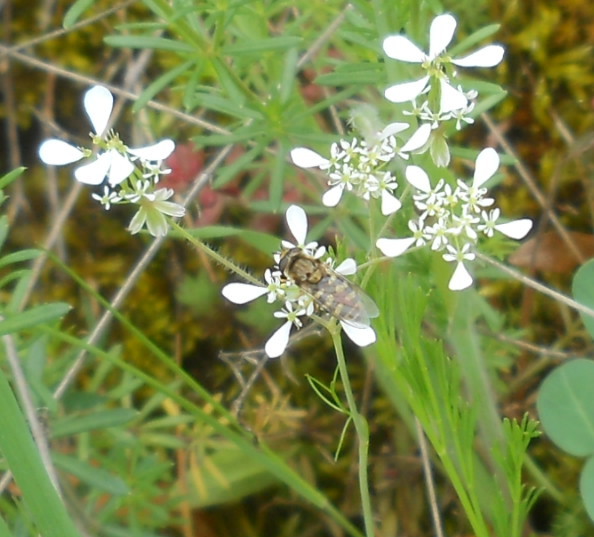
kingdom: Plantae
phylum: Tracheophyta
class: Magnoliopsida
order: Apiales
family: Apiaceae
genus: Orlaya
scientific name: Orlaya grandiflora
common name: White lace flower
